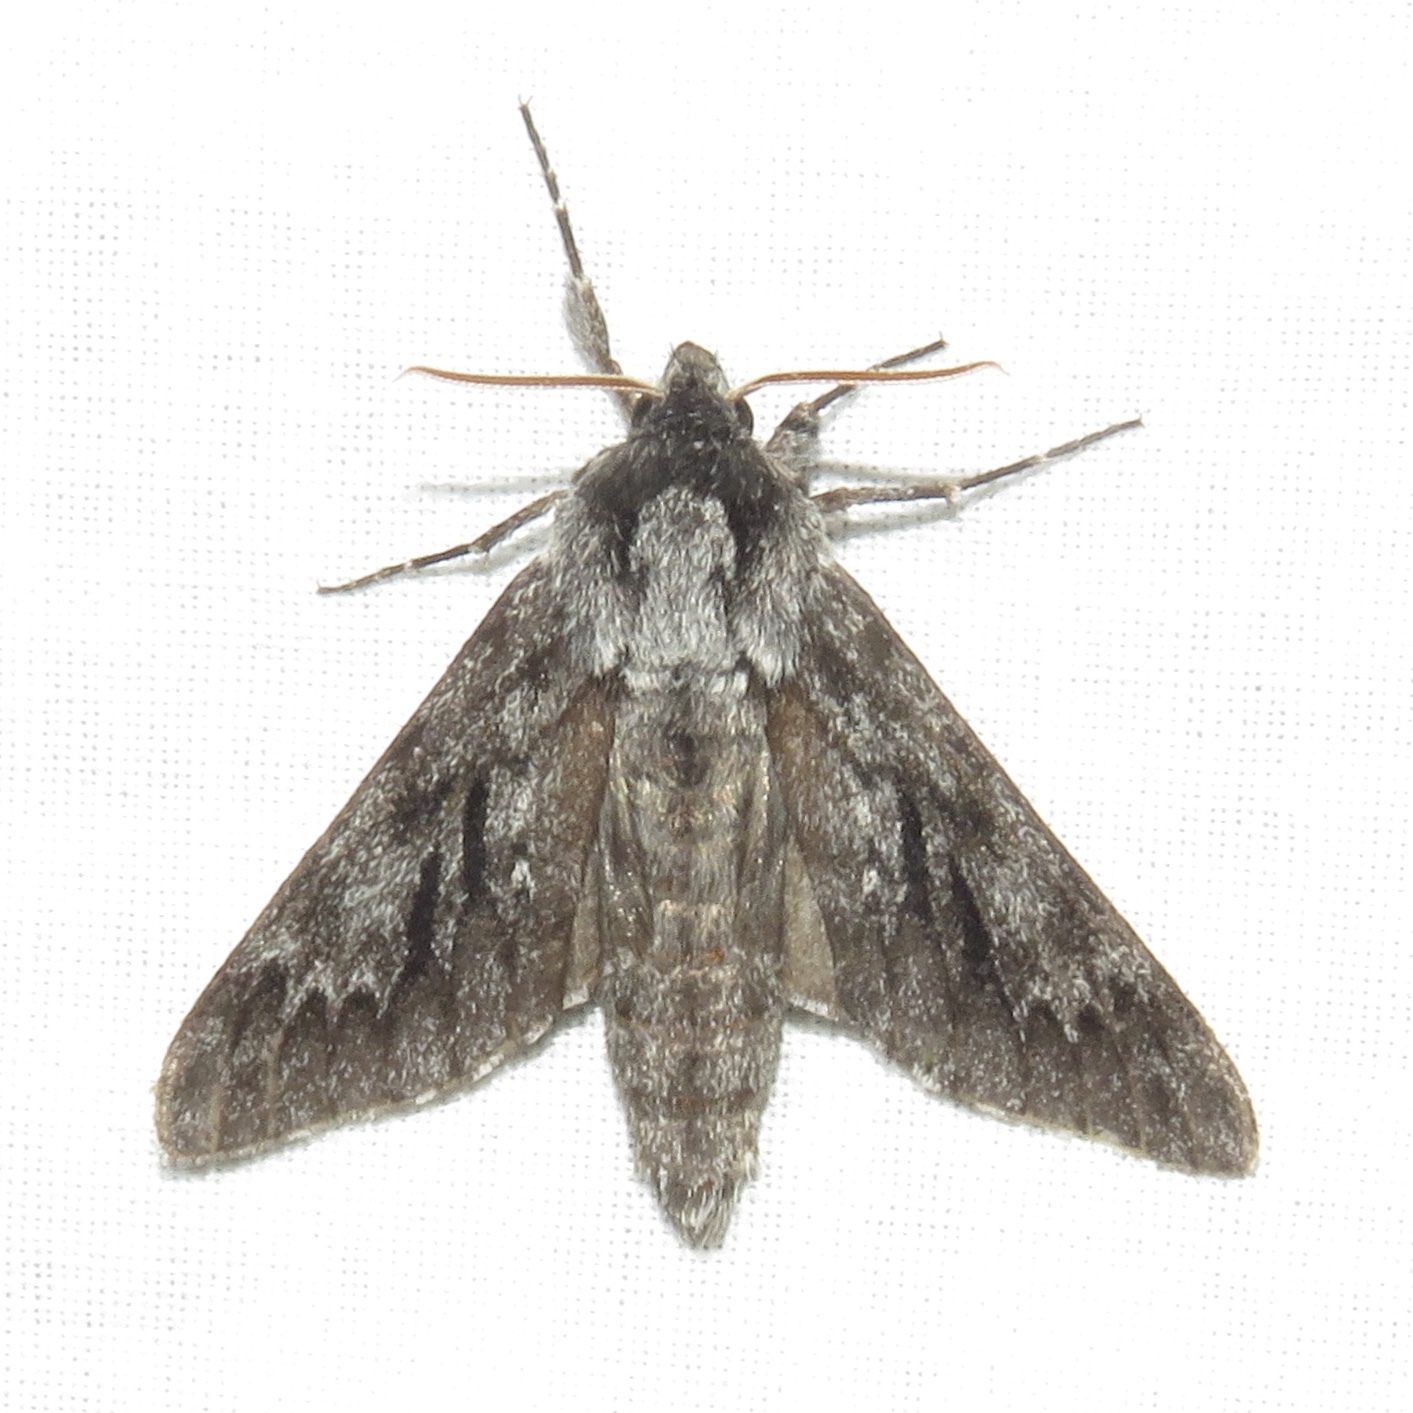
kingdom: Animalia
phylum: Arthropoda
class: Insecta
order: Lepidoptera
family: Sphingidae
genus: Lapara
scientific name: Lapara bombycoides
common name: Northern pine sphinx
